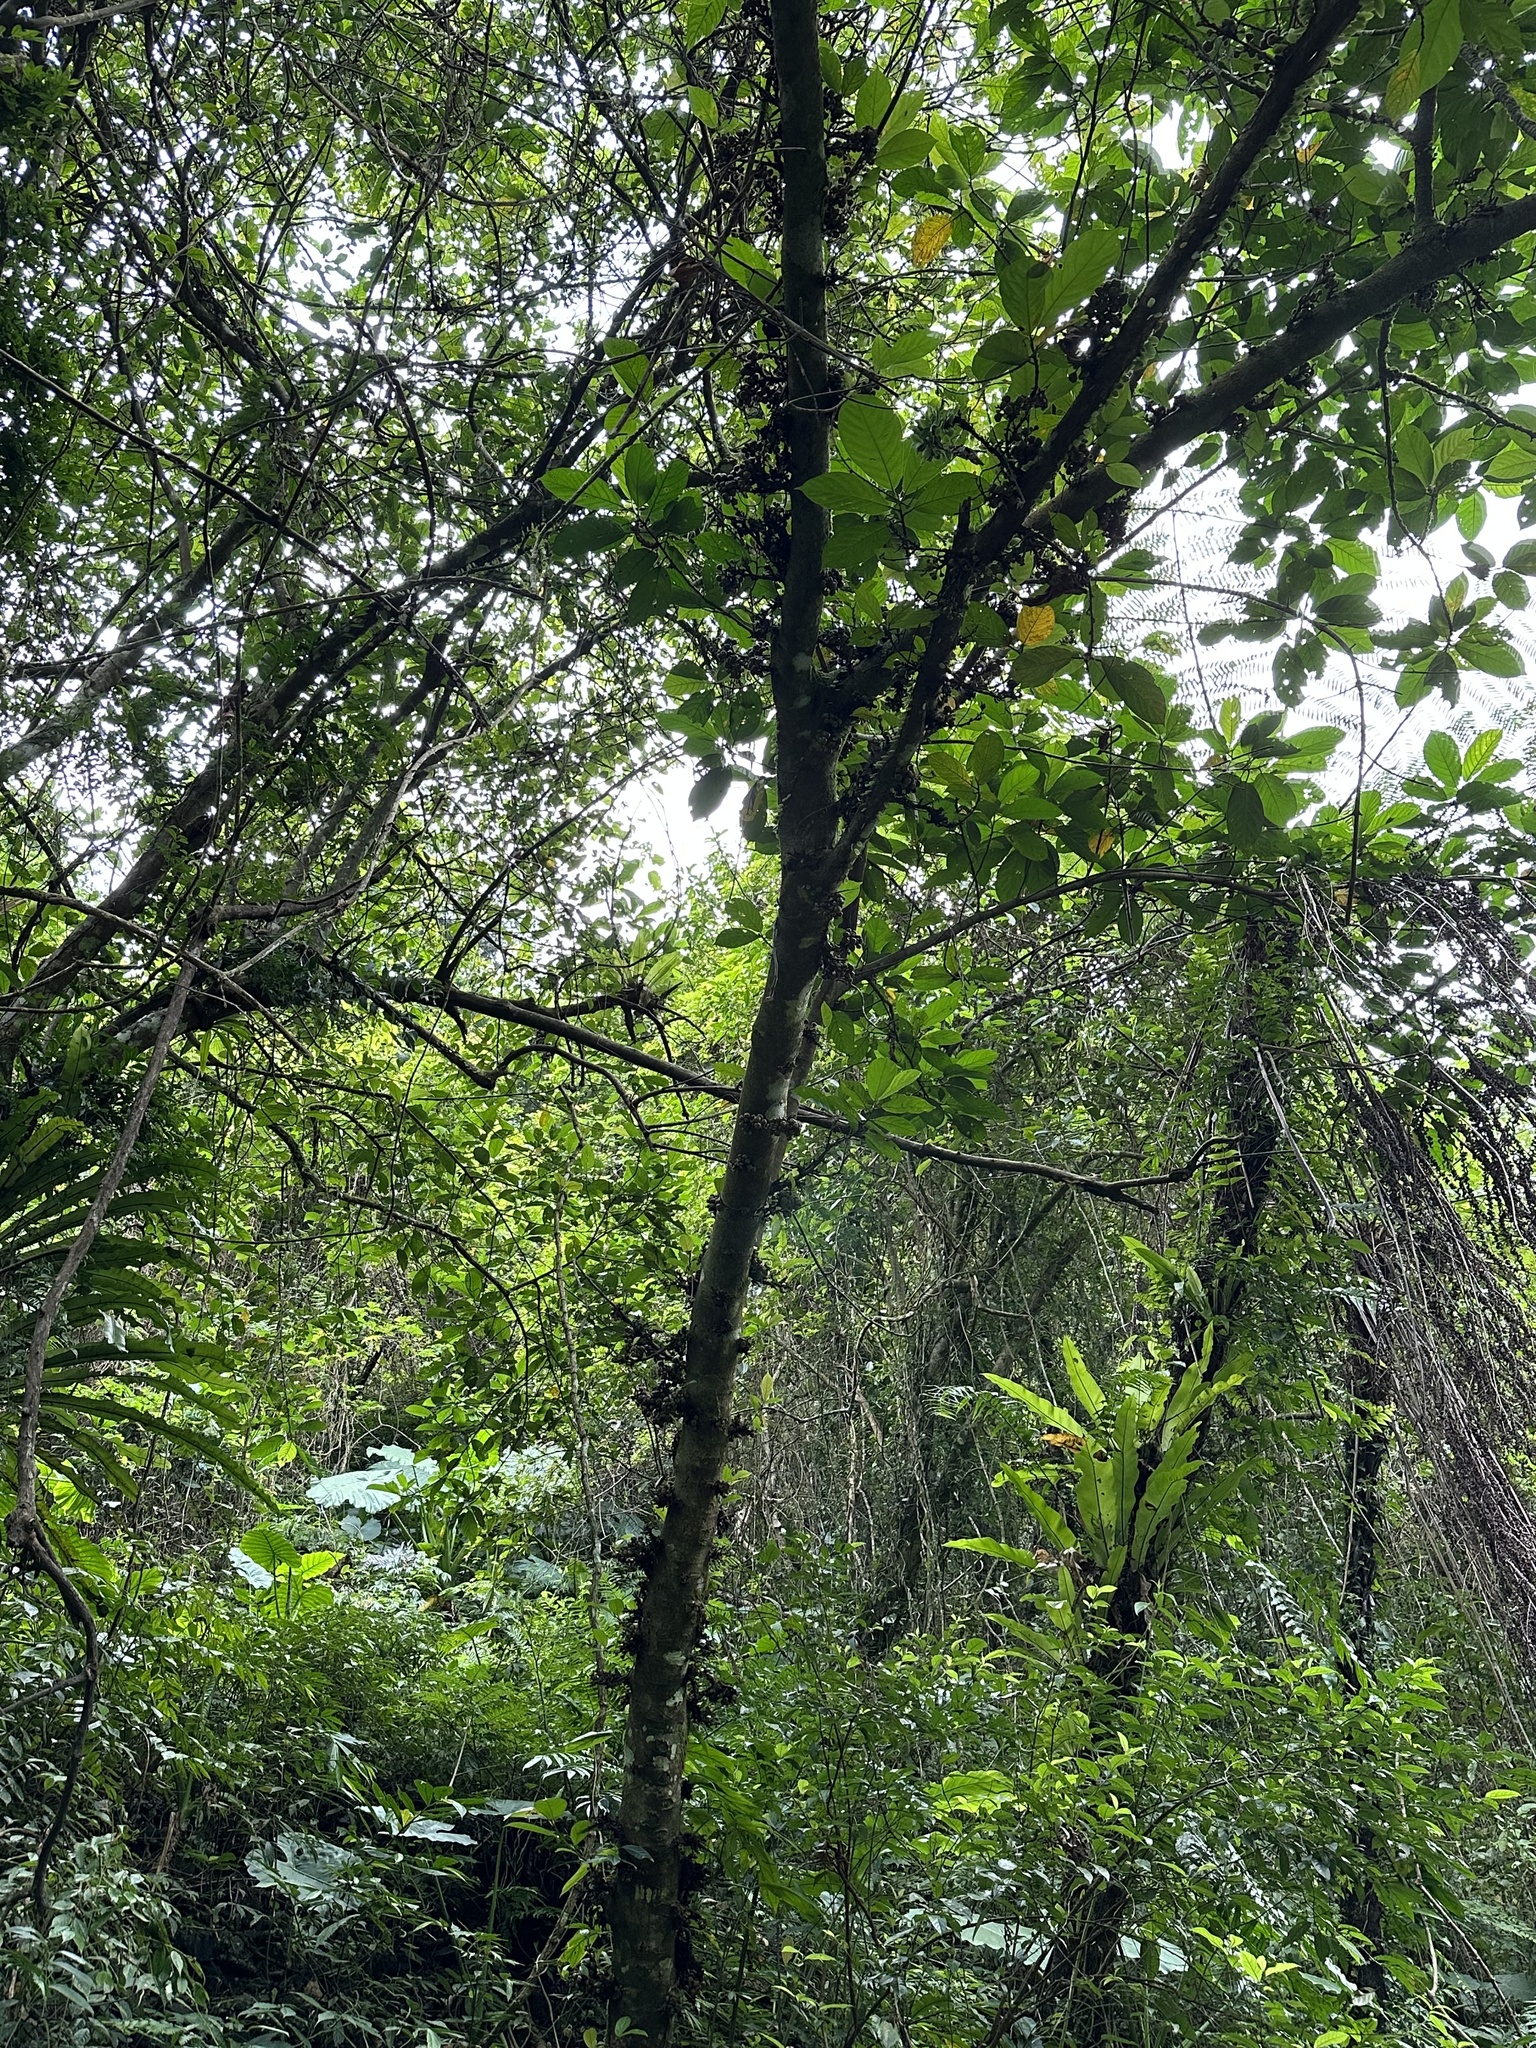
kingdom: Plantae
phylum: Tracheophyta
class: Magnoliopsida
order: Rosales
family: Moraceae
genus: Ficus
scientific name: Ficus benguetensis
